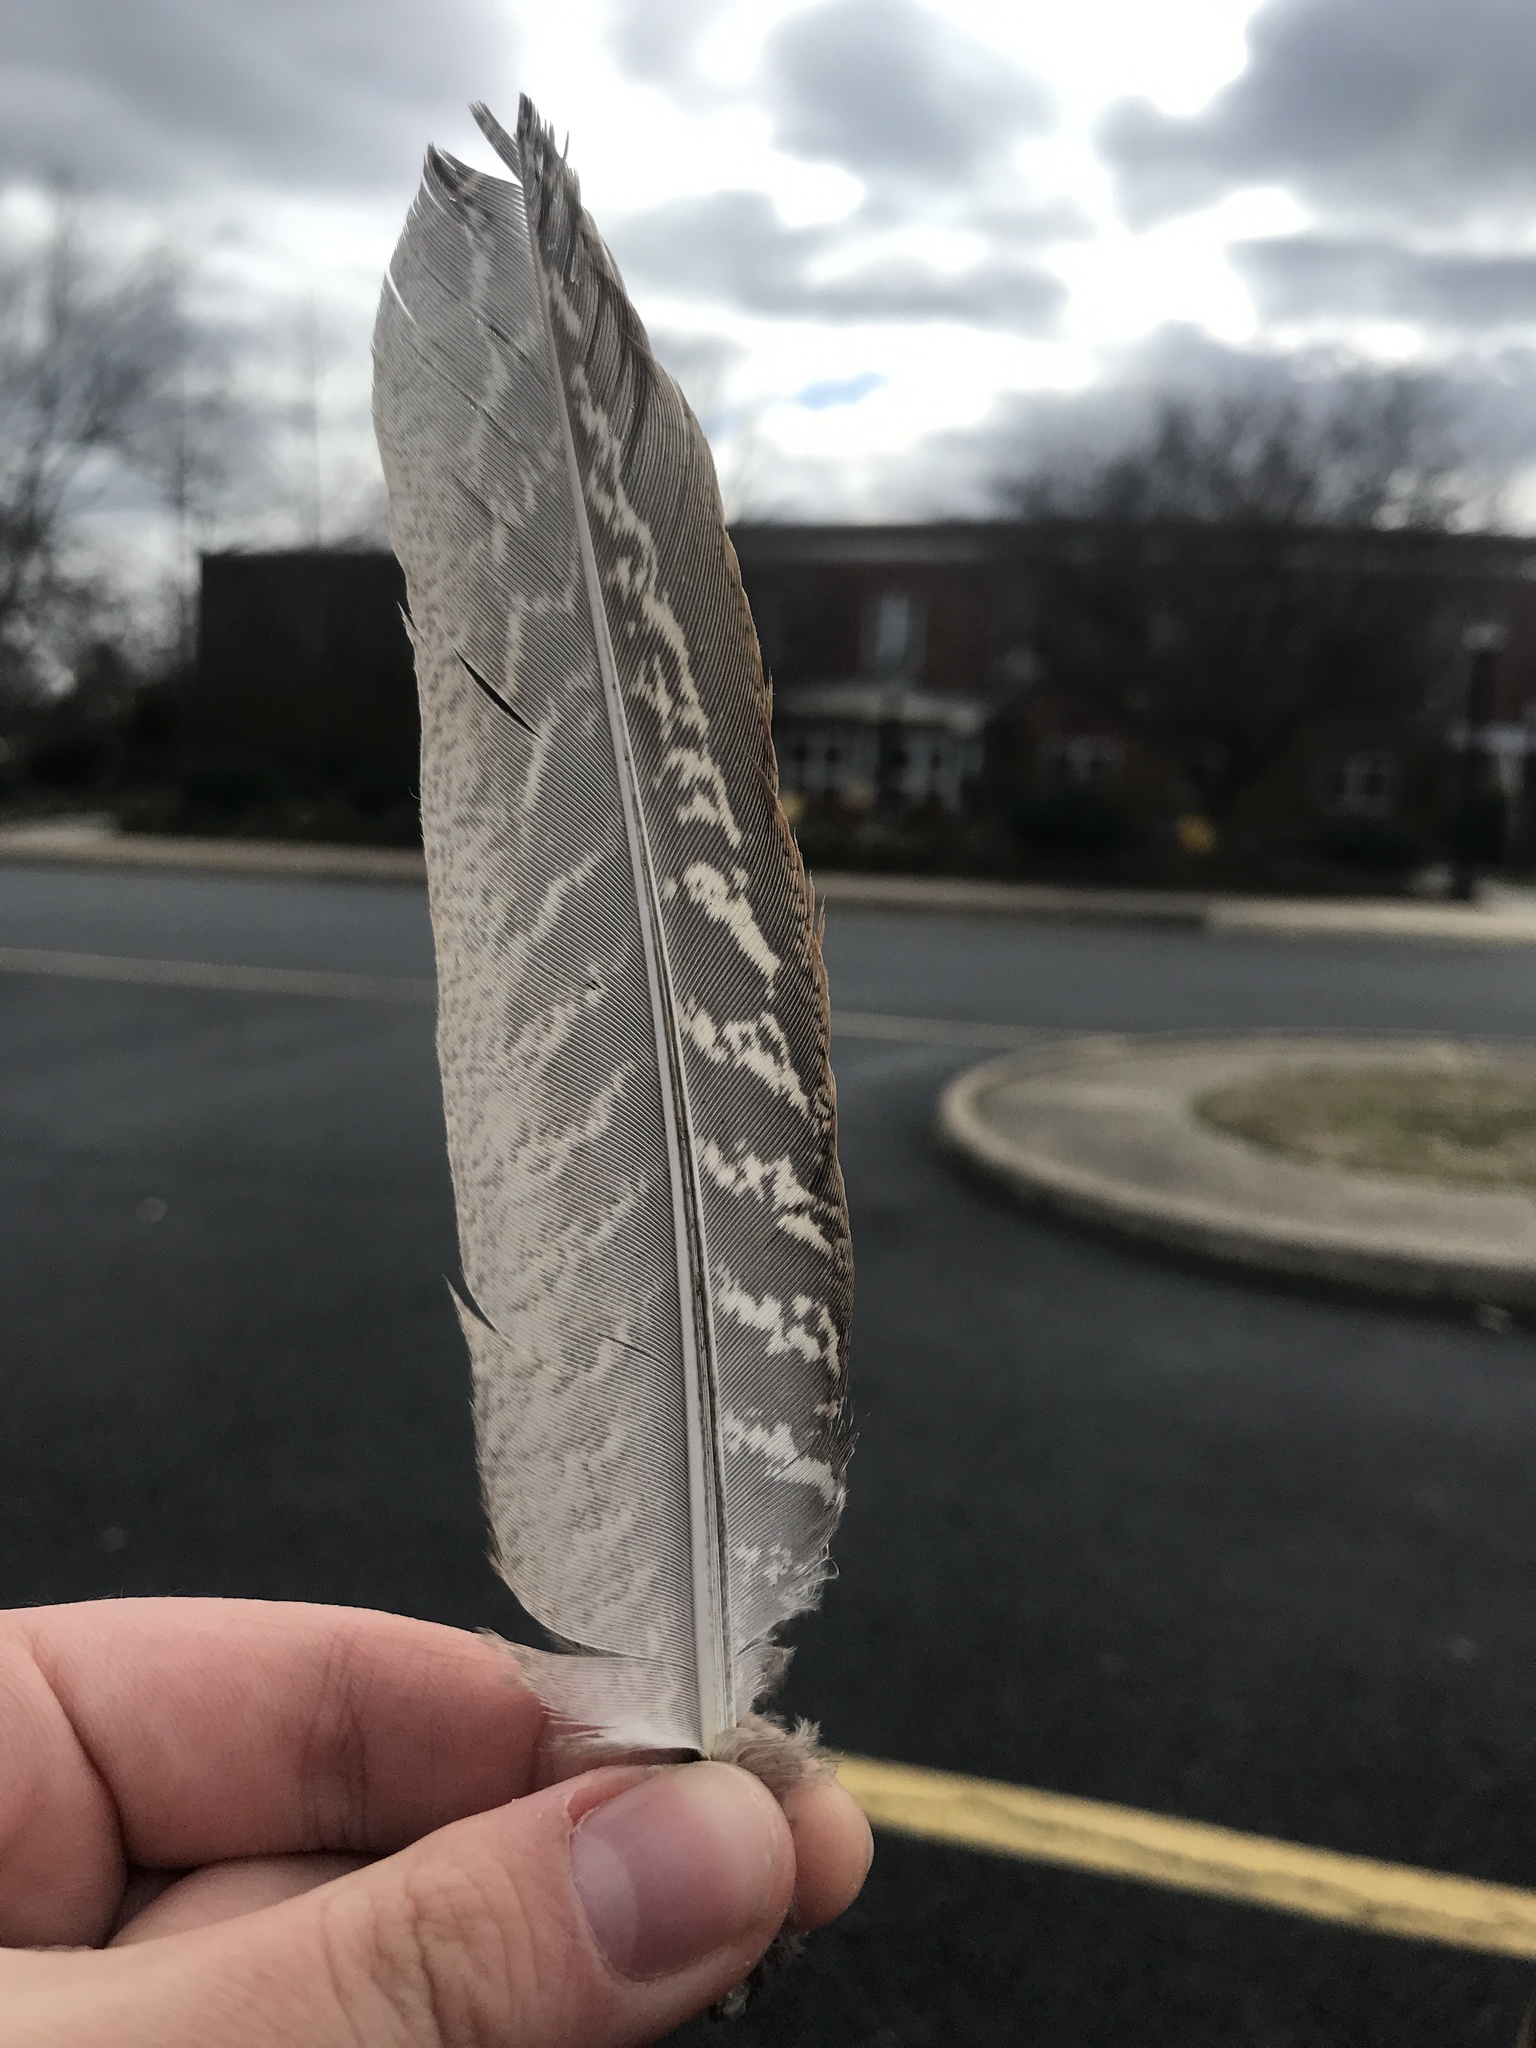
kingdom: Animalia
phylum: Chordata
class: Aves
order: Galliformes
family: Phasianidae
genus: Phasianus
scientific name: Phasianus colchicus
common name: Common pheasant
